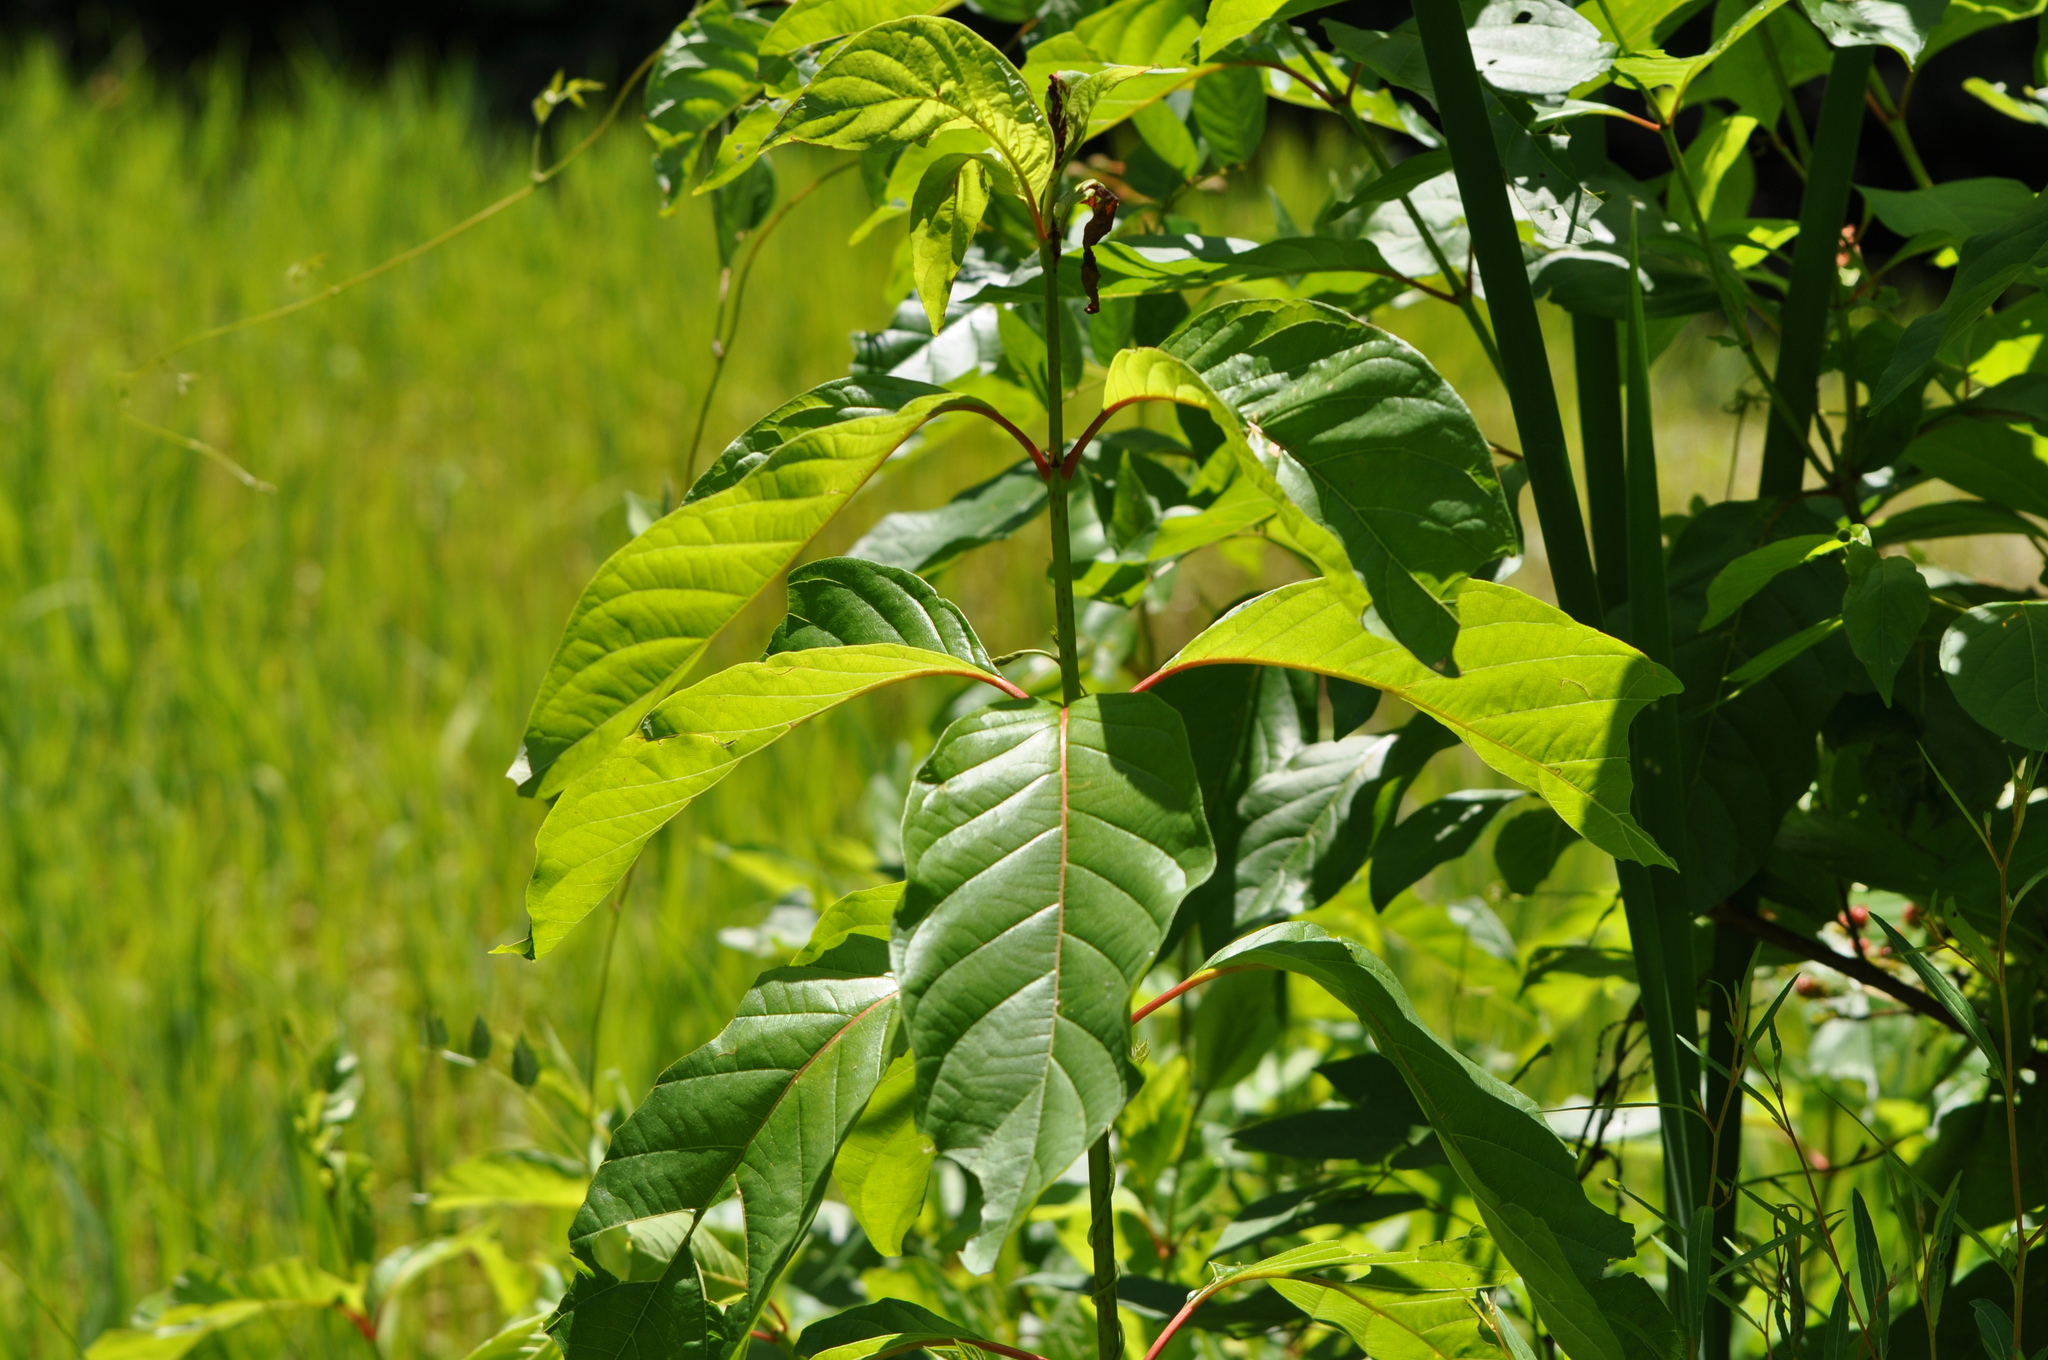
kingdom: Plantae
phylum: Tracheophyta
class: Magnoliopsida
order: Gentianales
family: Rubiaceae
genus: Cephalanthus
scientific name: Cephalanthus occidentalis
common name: Button-willow
